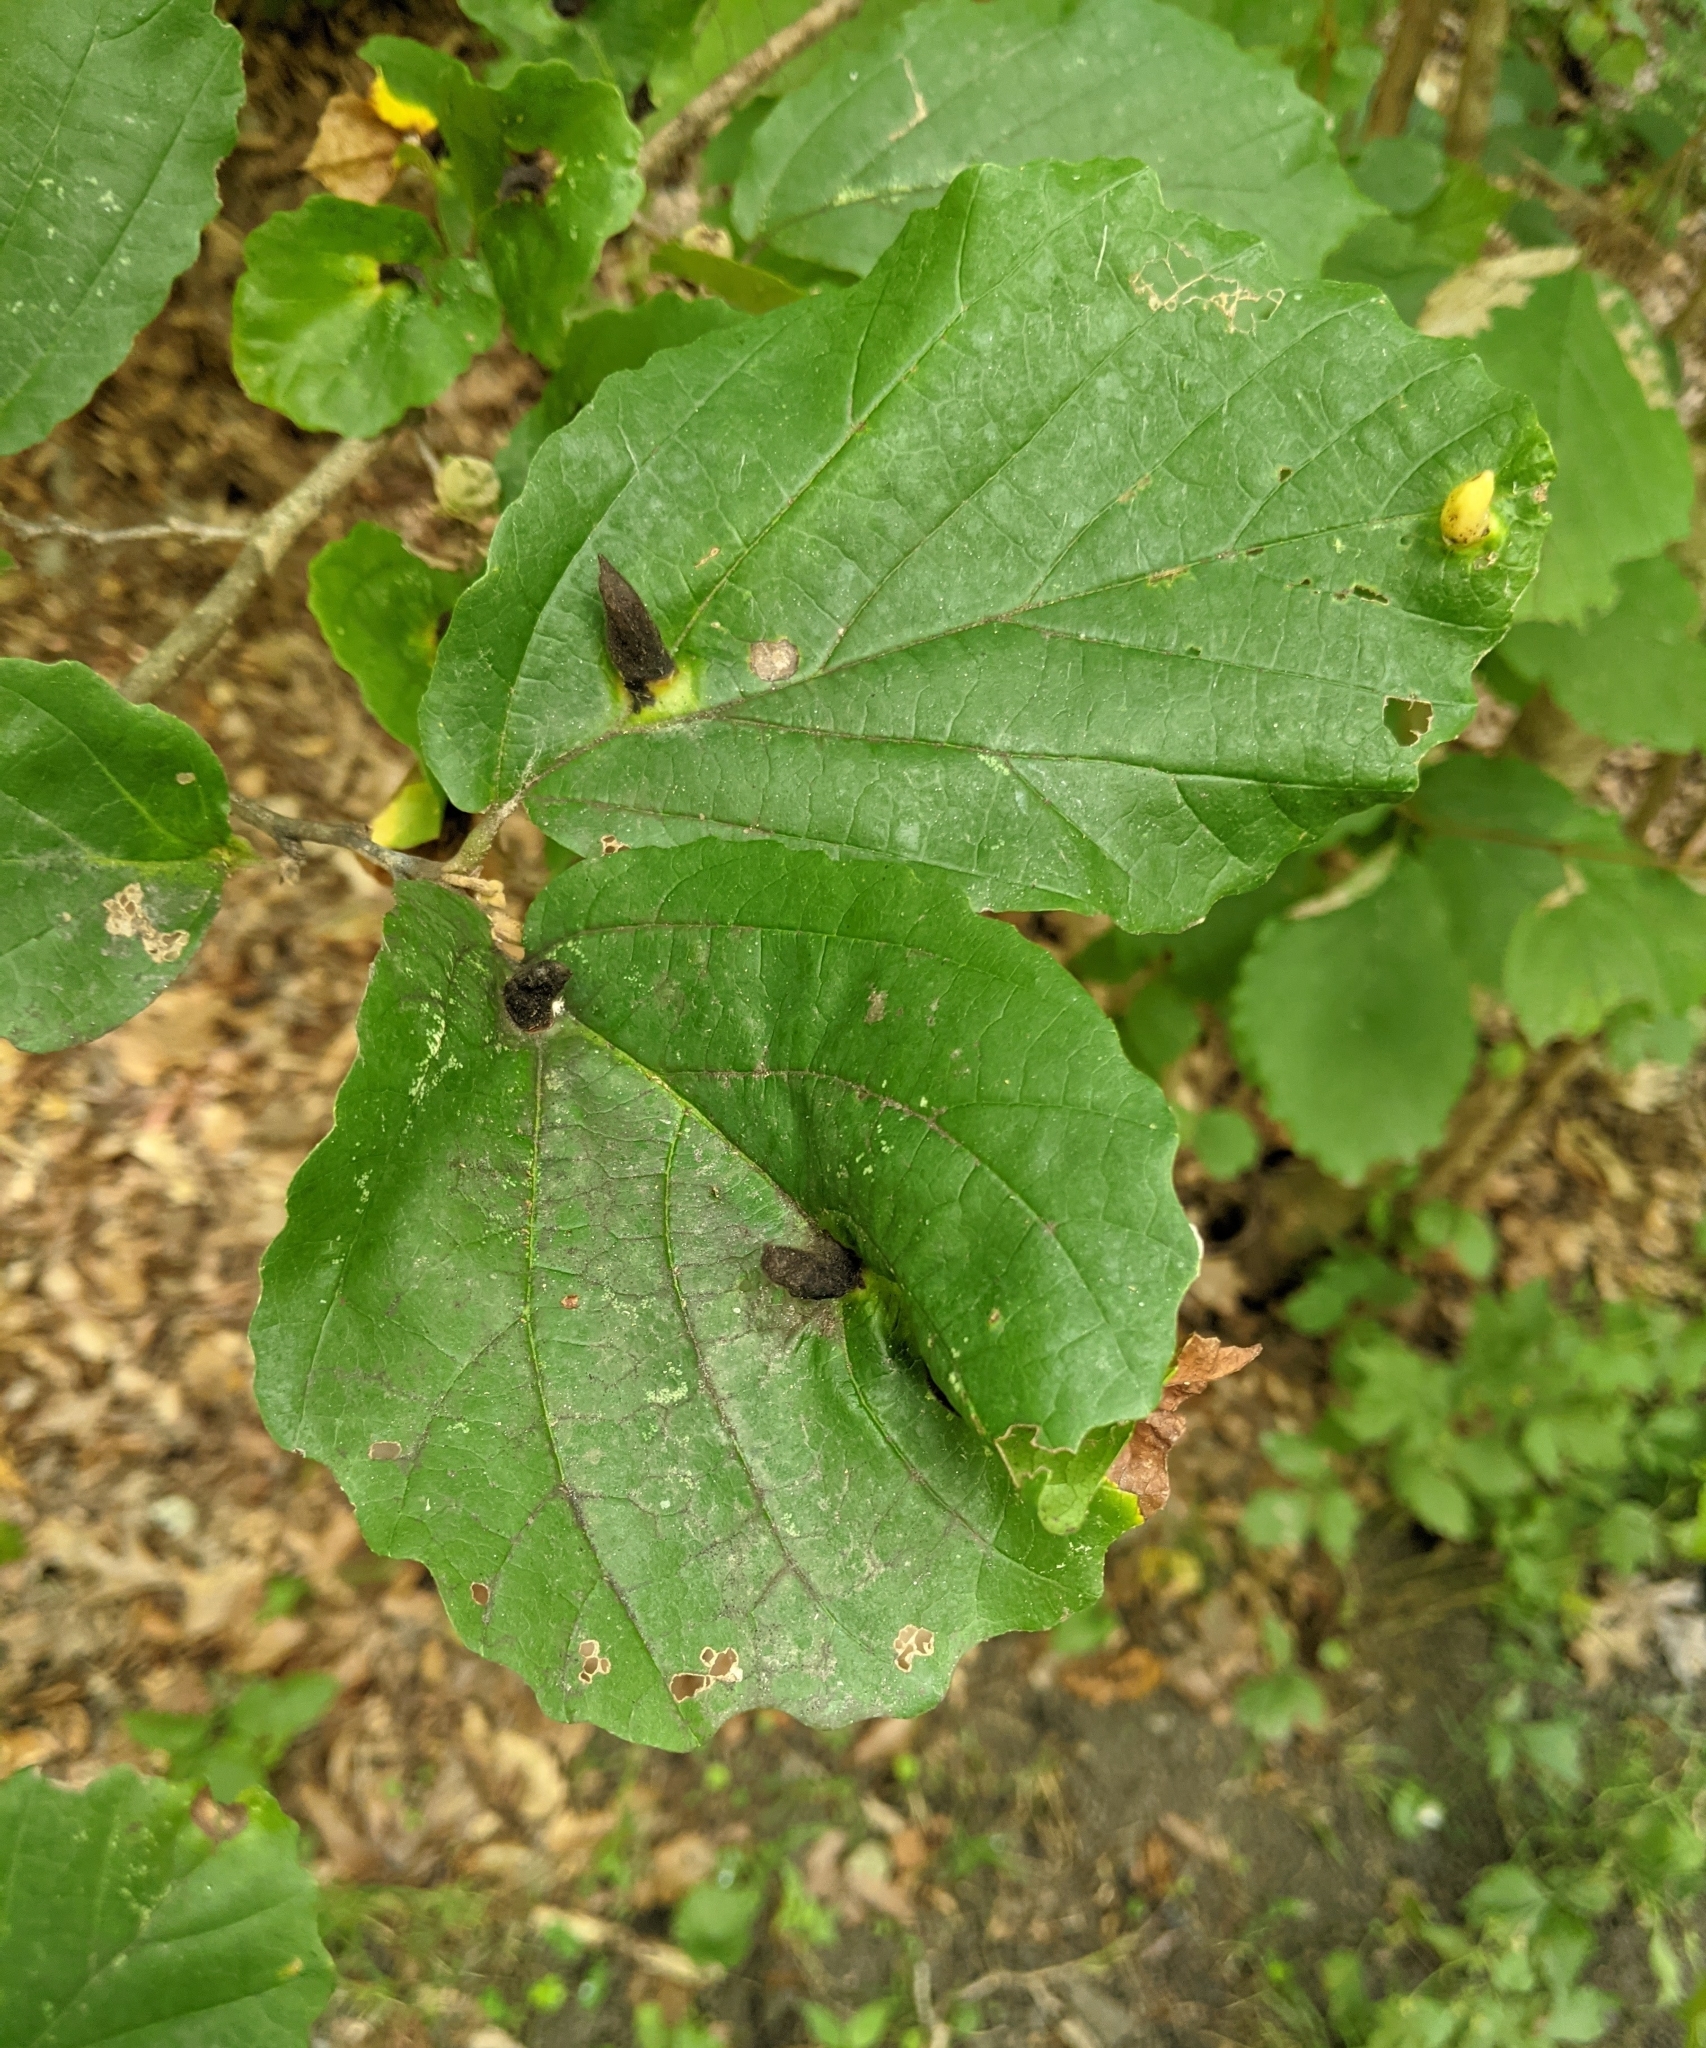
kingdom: Animalia
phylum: Arthropoda
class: Insecta
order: Hemiptera
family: Aphididae
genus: Hormaphis
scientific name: Hormaphis hamamelidis
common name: Witch-hazel cone gall aphid
